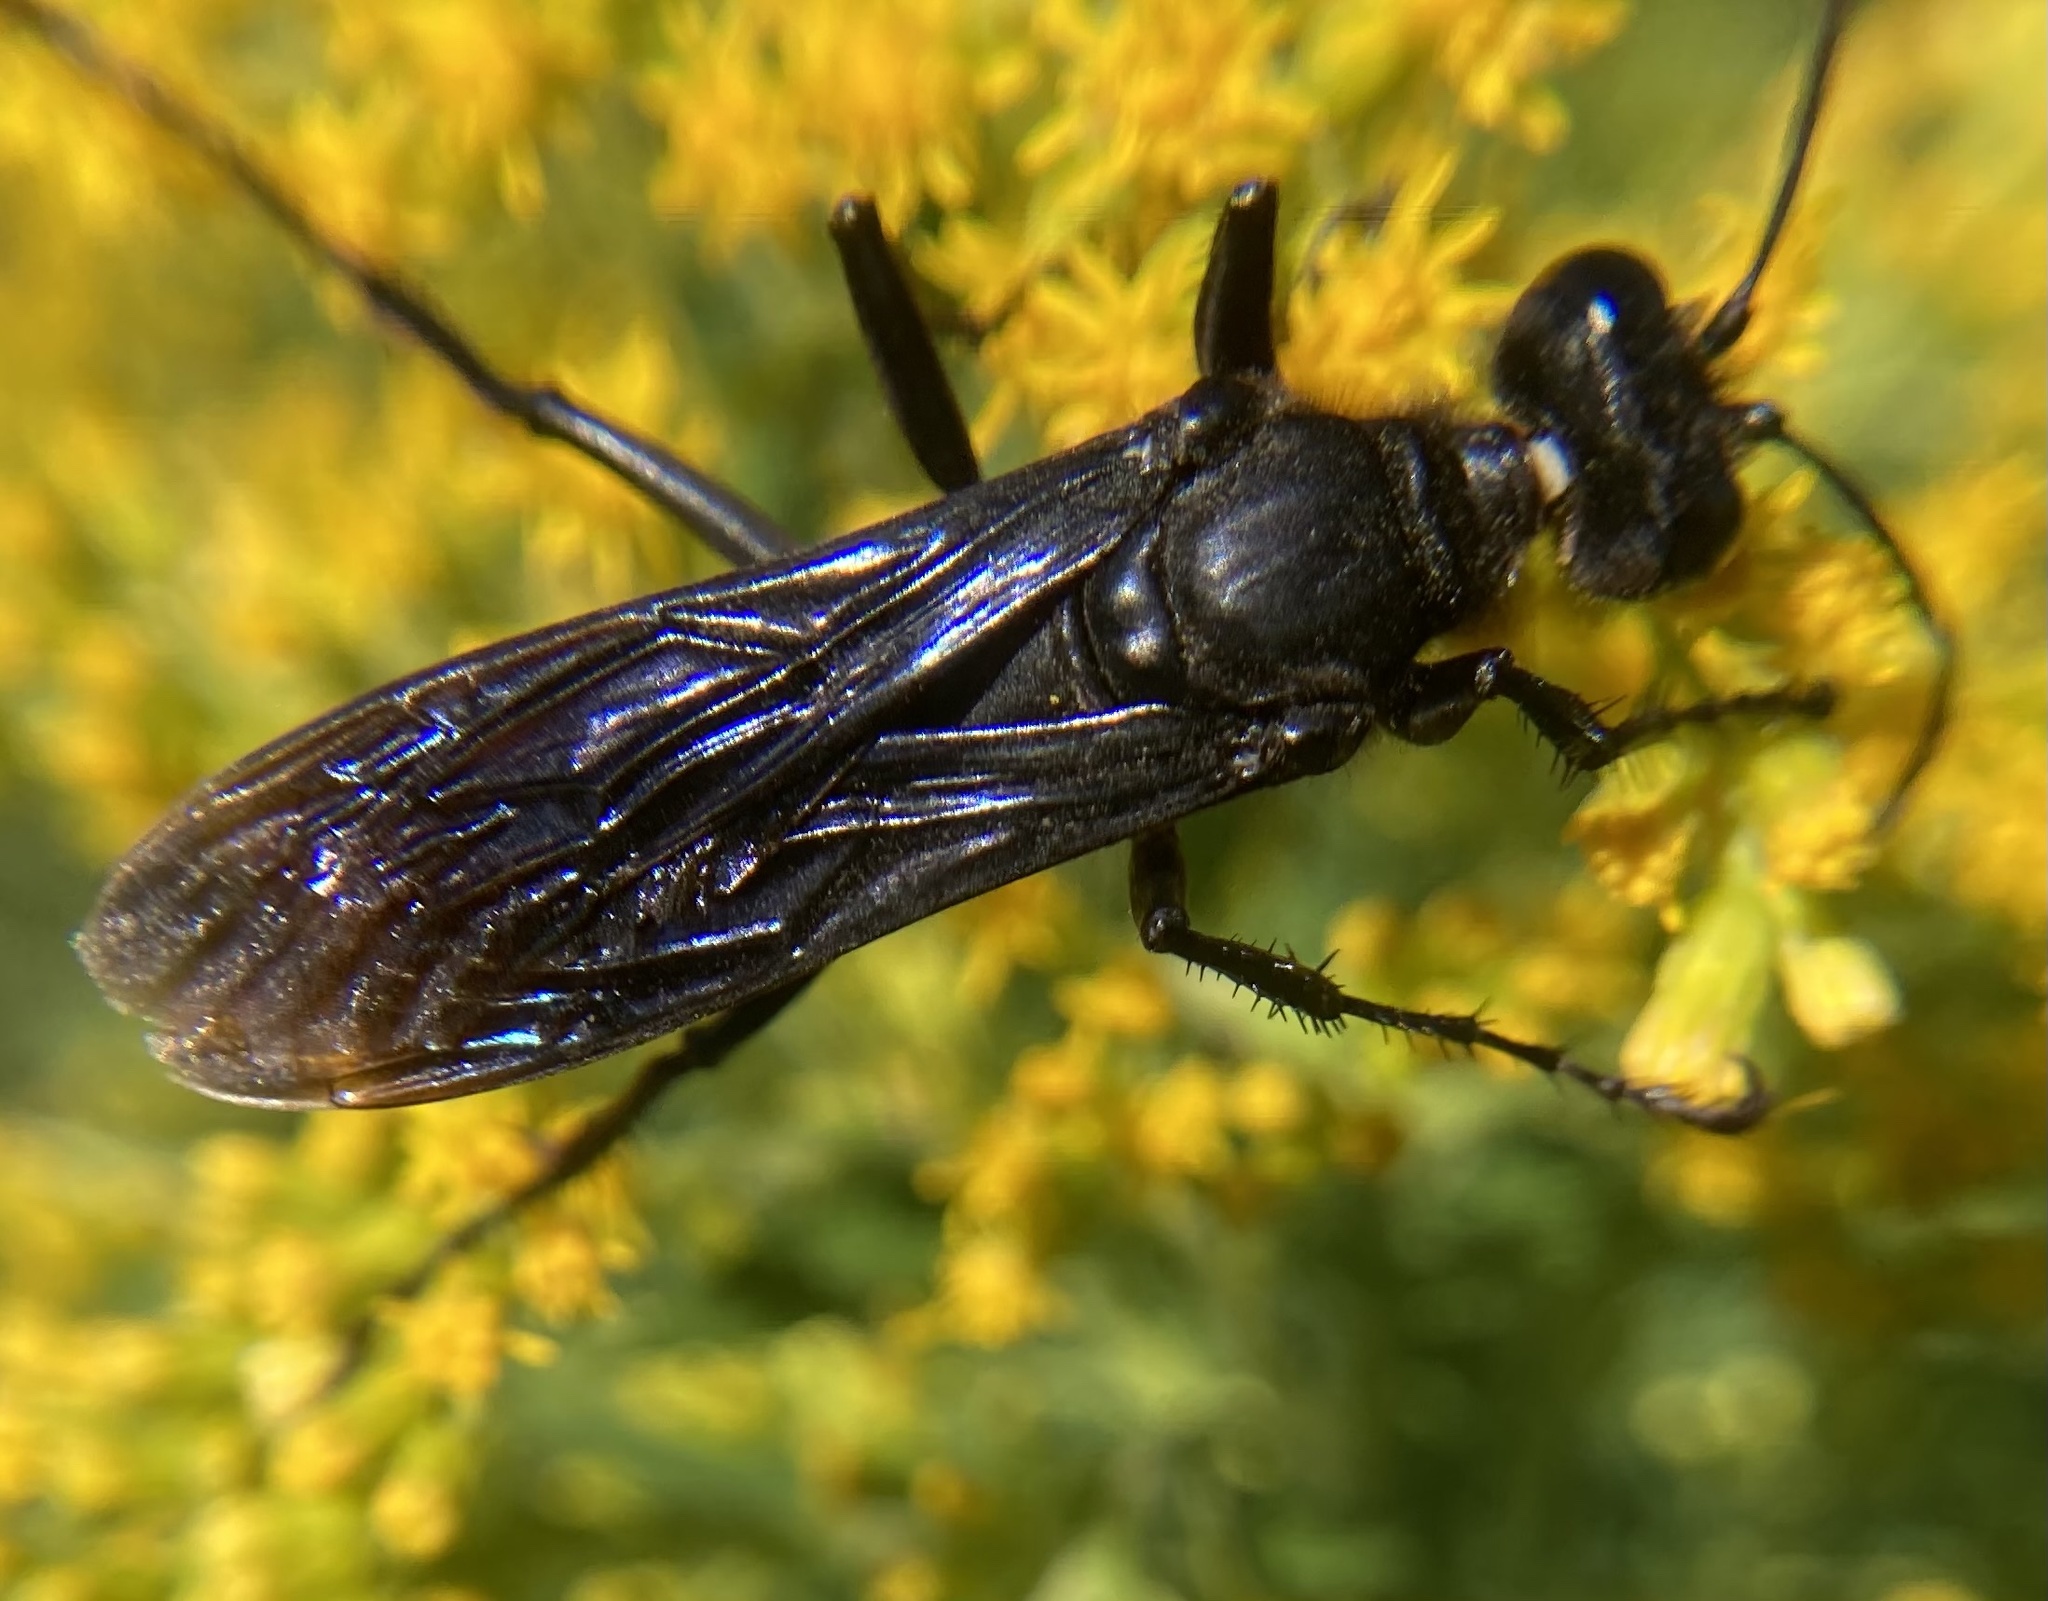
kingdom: Animalia
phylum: Arthropoda
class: Insecta
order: Hymenoptera
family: Sphecidae
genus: Sphex
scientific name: Sphex pensylvanicus
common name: Great black digger wasp
